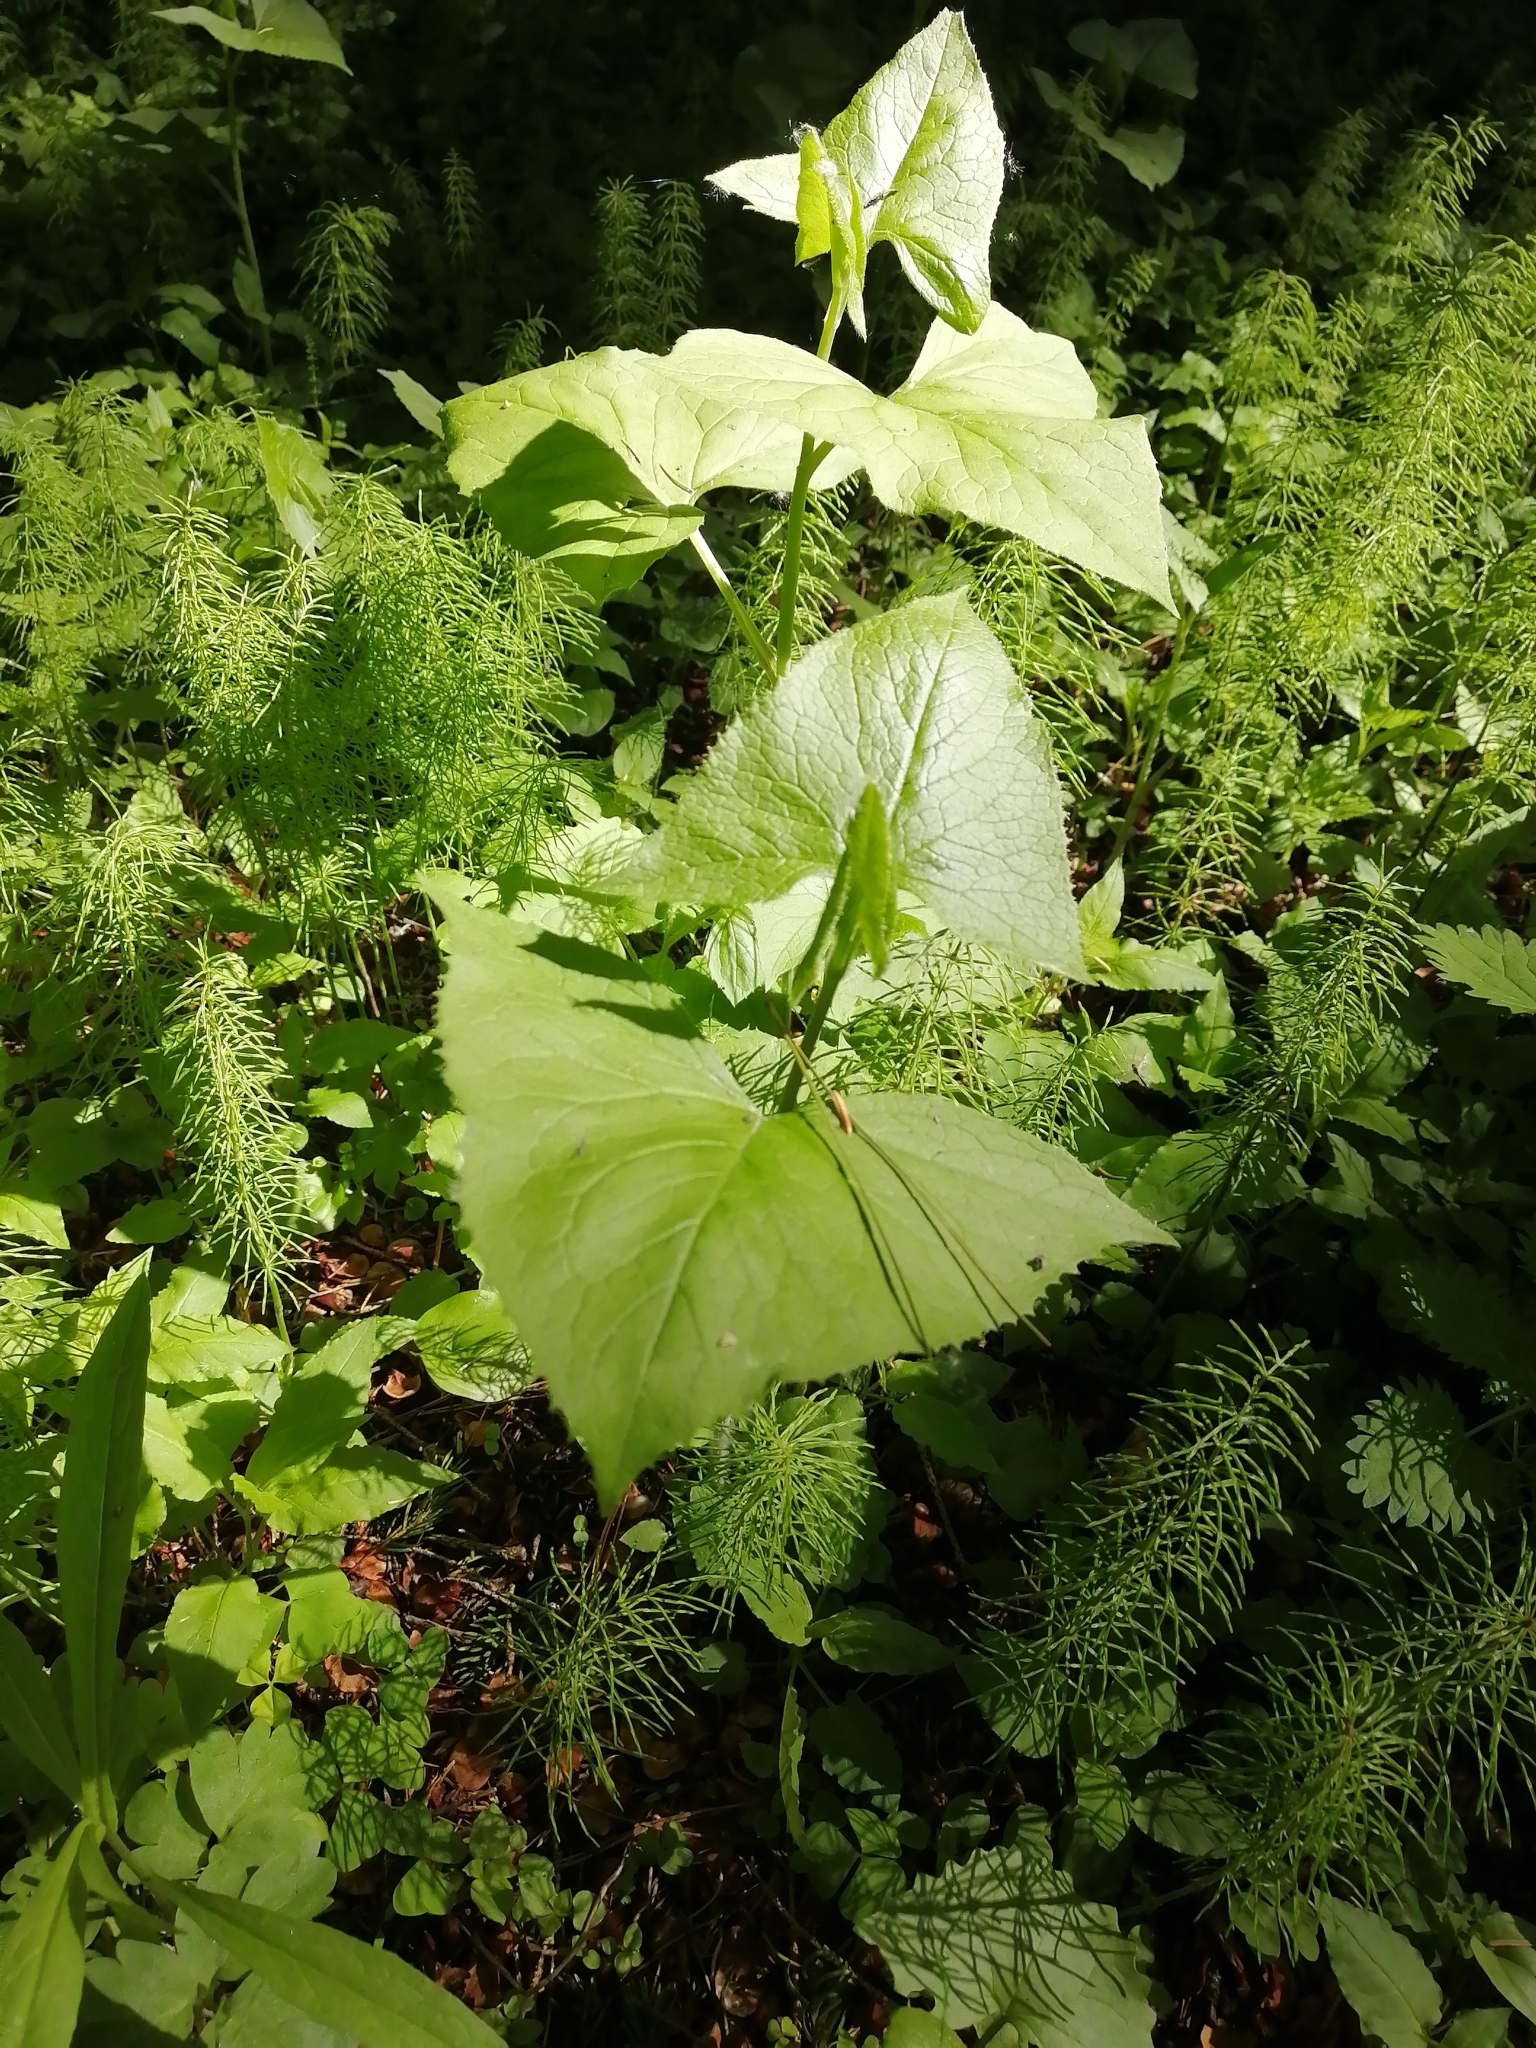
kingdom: Plantae
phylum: Tracheophyta
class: Magnoliopsida
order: Asterales
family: Asteraceae
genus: Parasenecio
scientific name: Parasenecio hastatus
